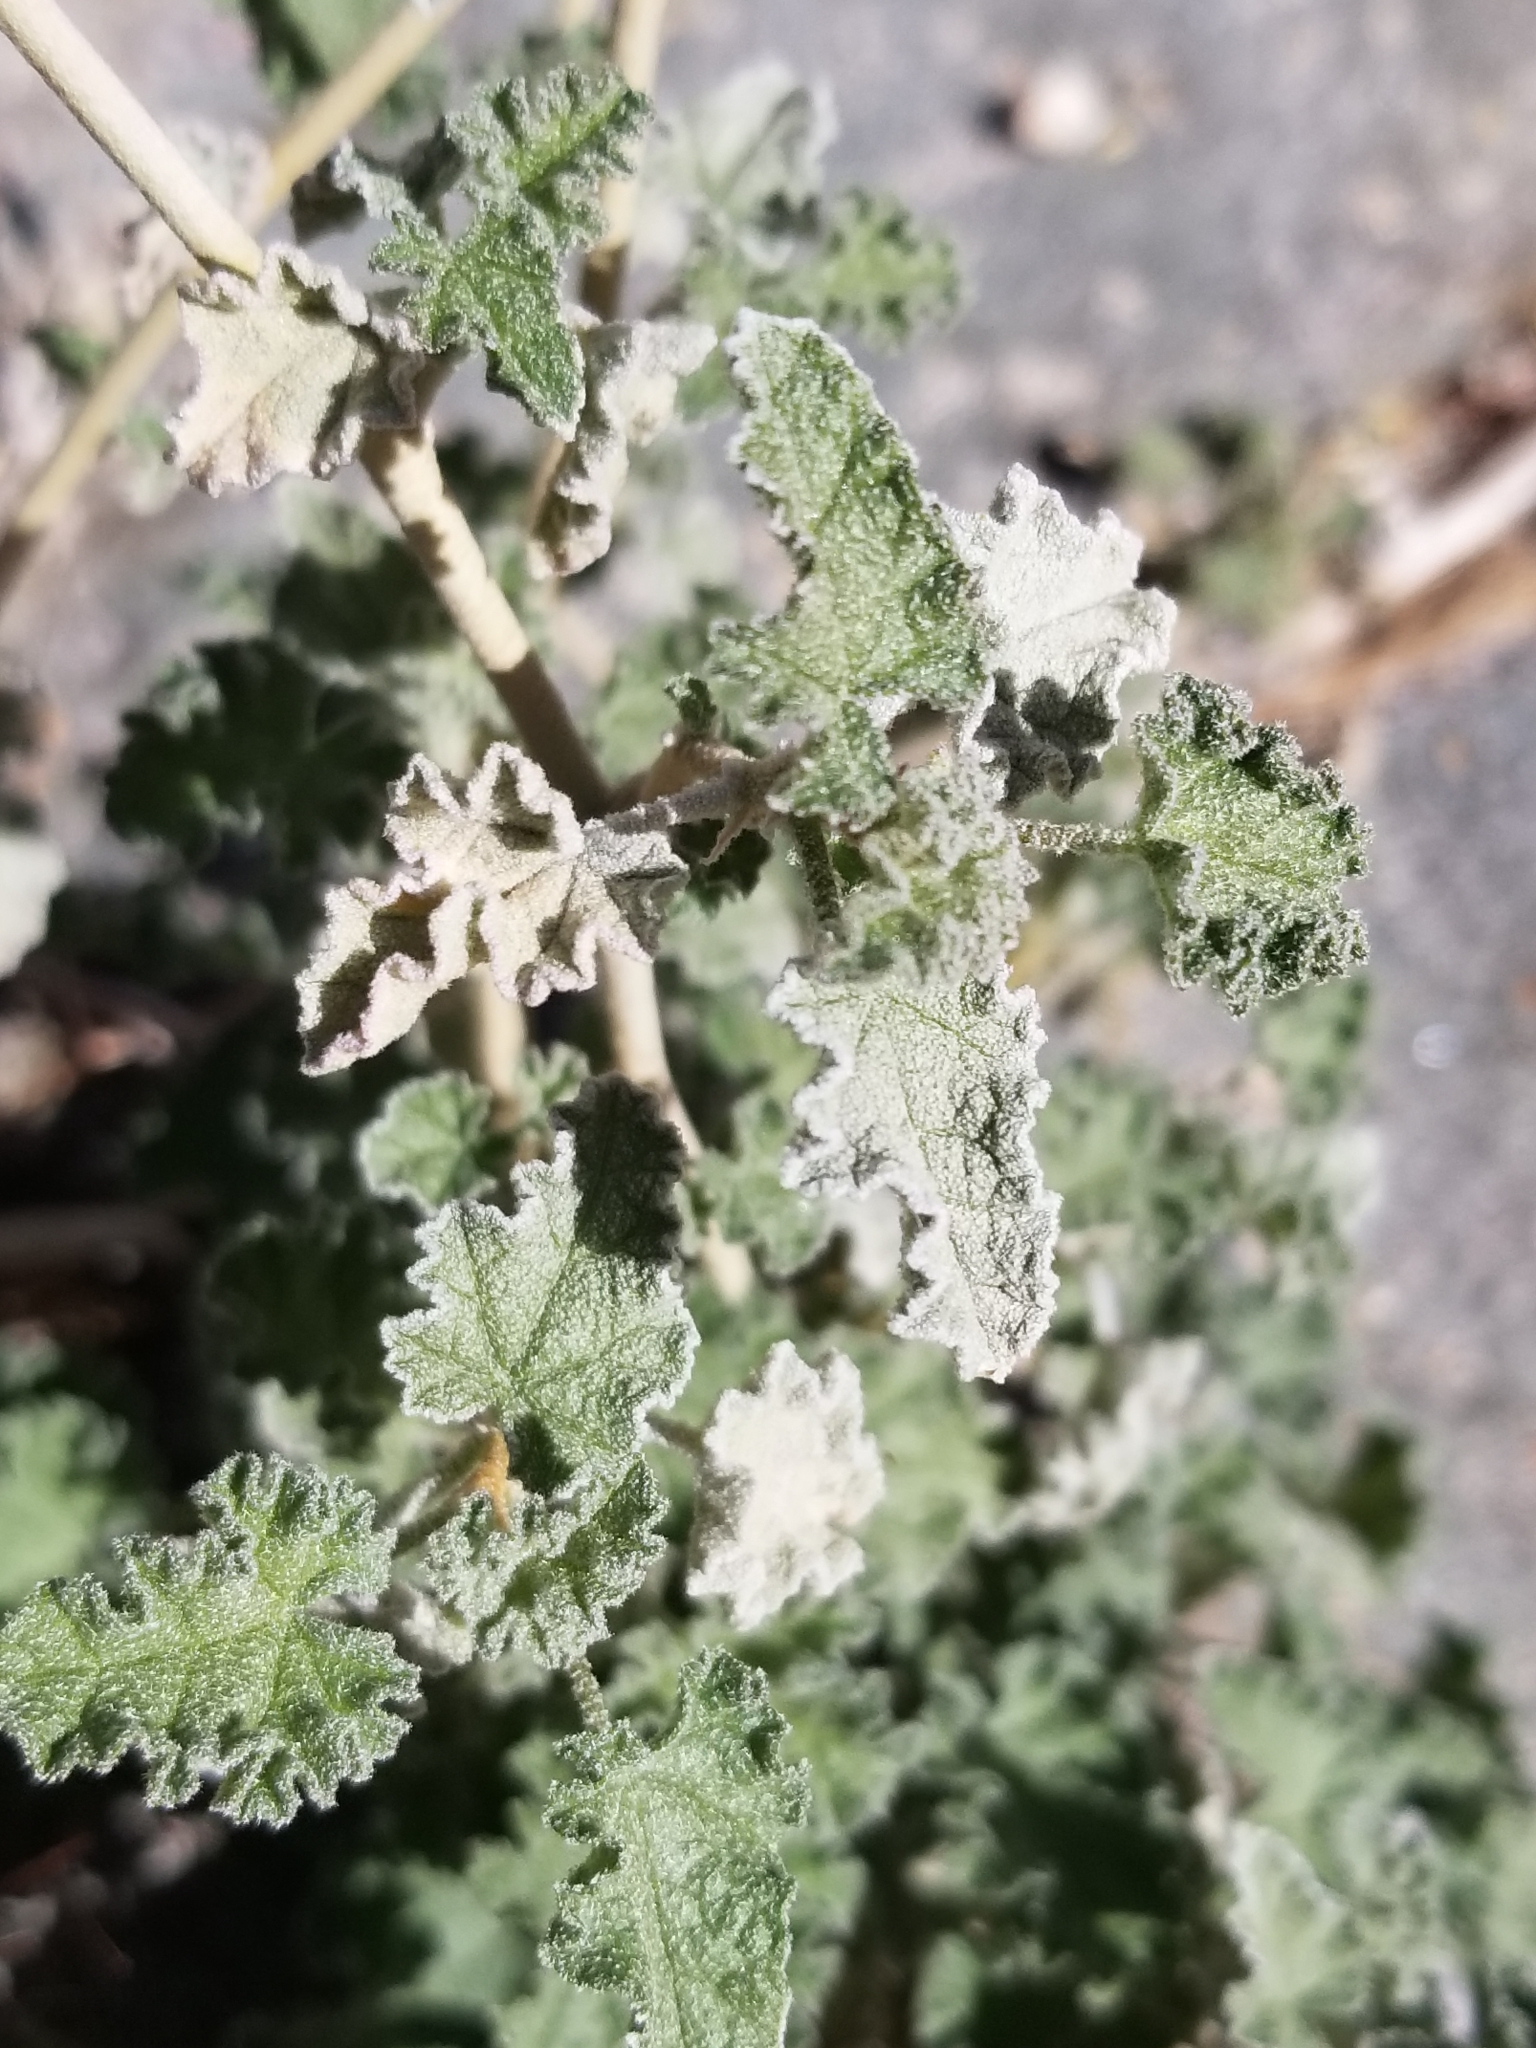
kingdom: Plantae
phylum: Tracheophyta
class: Magnoliopsida
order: Malvales
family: Malvaceae
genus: Sphaeralcea
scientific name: Sphaeralcea ambigua
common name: Apricot globe-mallow
